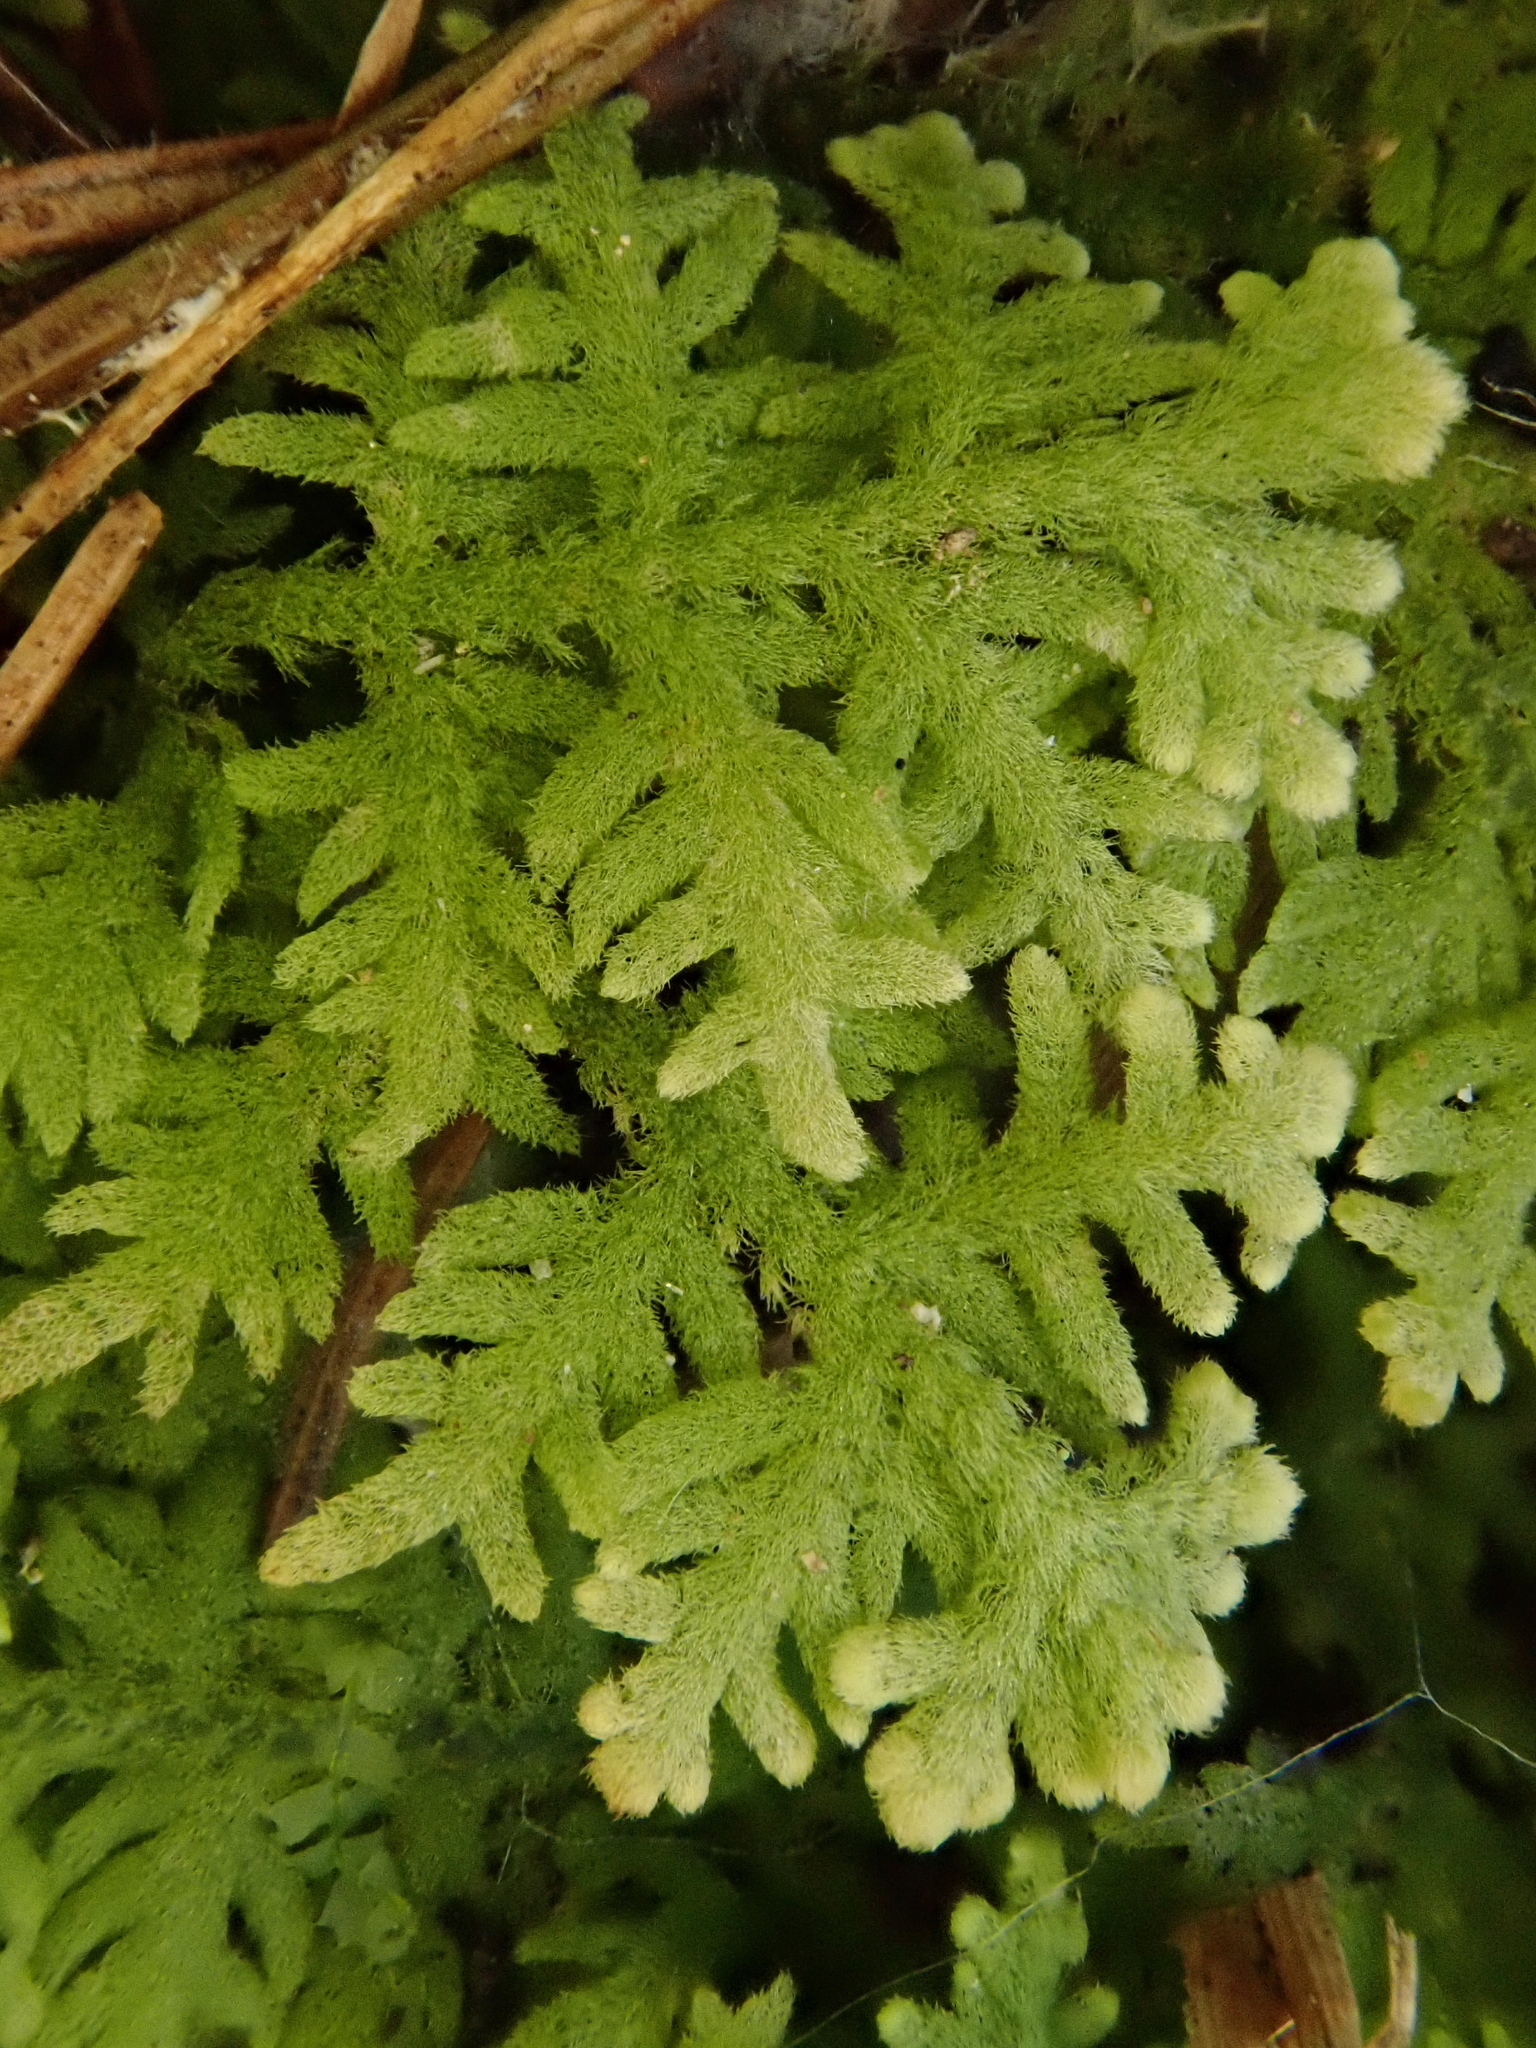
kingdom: Plantae
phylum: Marchantiophyta
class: Jungermanniopsida
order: Jungermanniales
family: Trichocoleaceae
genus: Trichocolea
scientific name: Trichocolea tomentella
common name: Woolly liverwort
